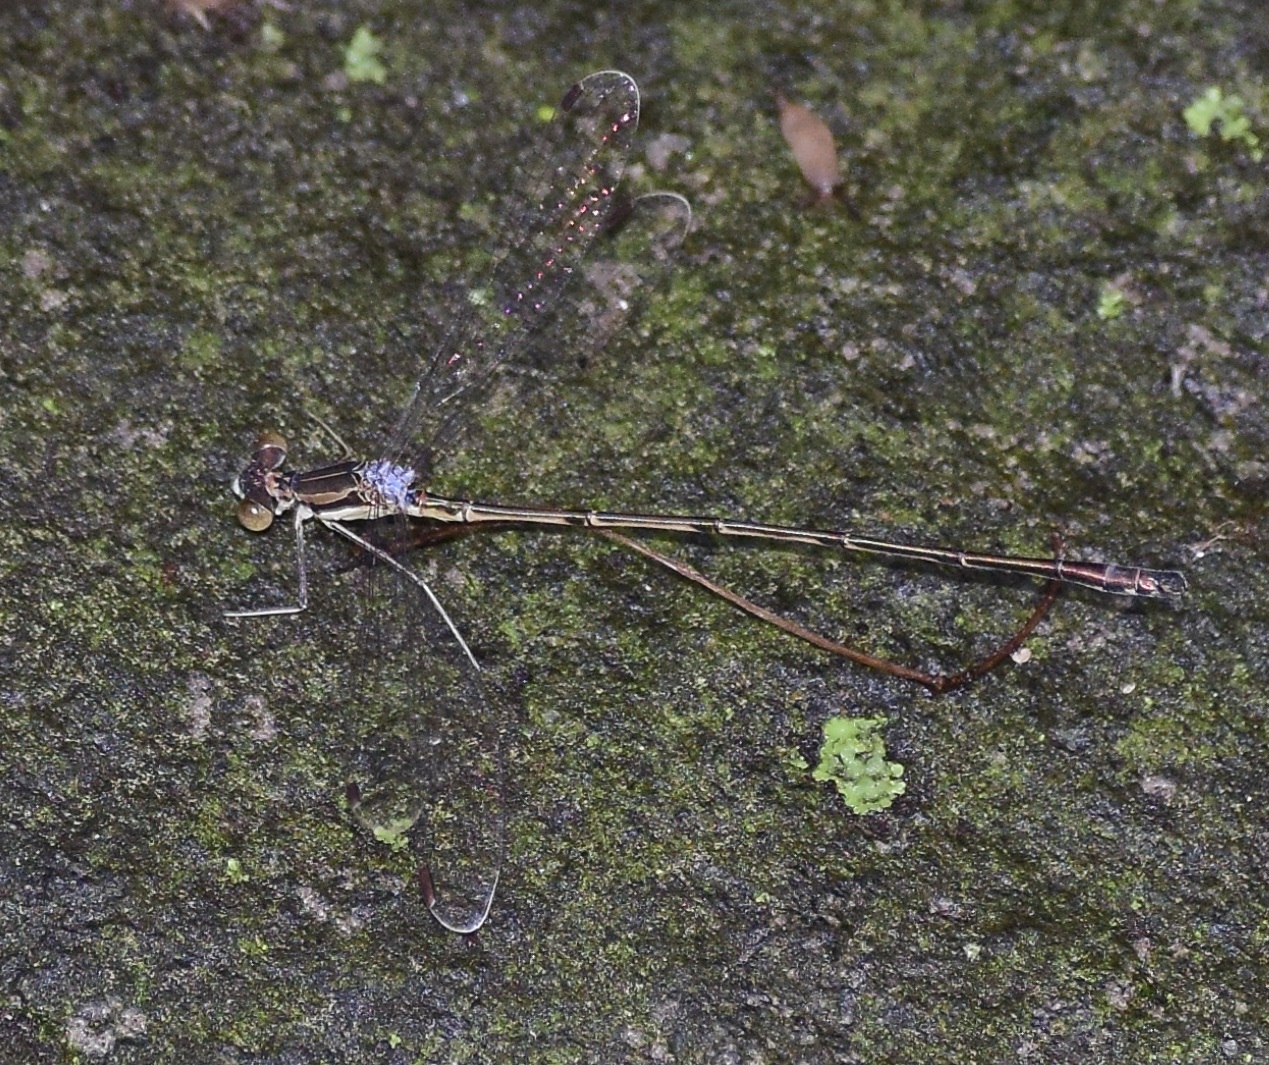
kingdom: Animalia
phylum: Arthropoda
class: Insecta
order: Odonata
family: Lestidae
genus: Lestes
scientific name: Lestes rectangularis
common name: Slender spreadwing
